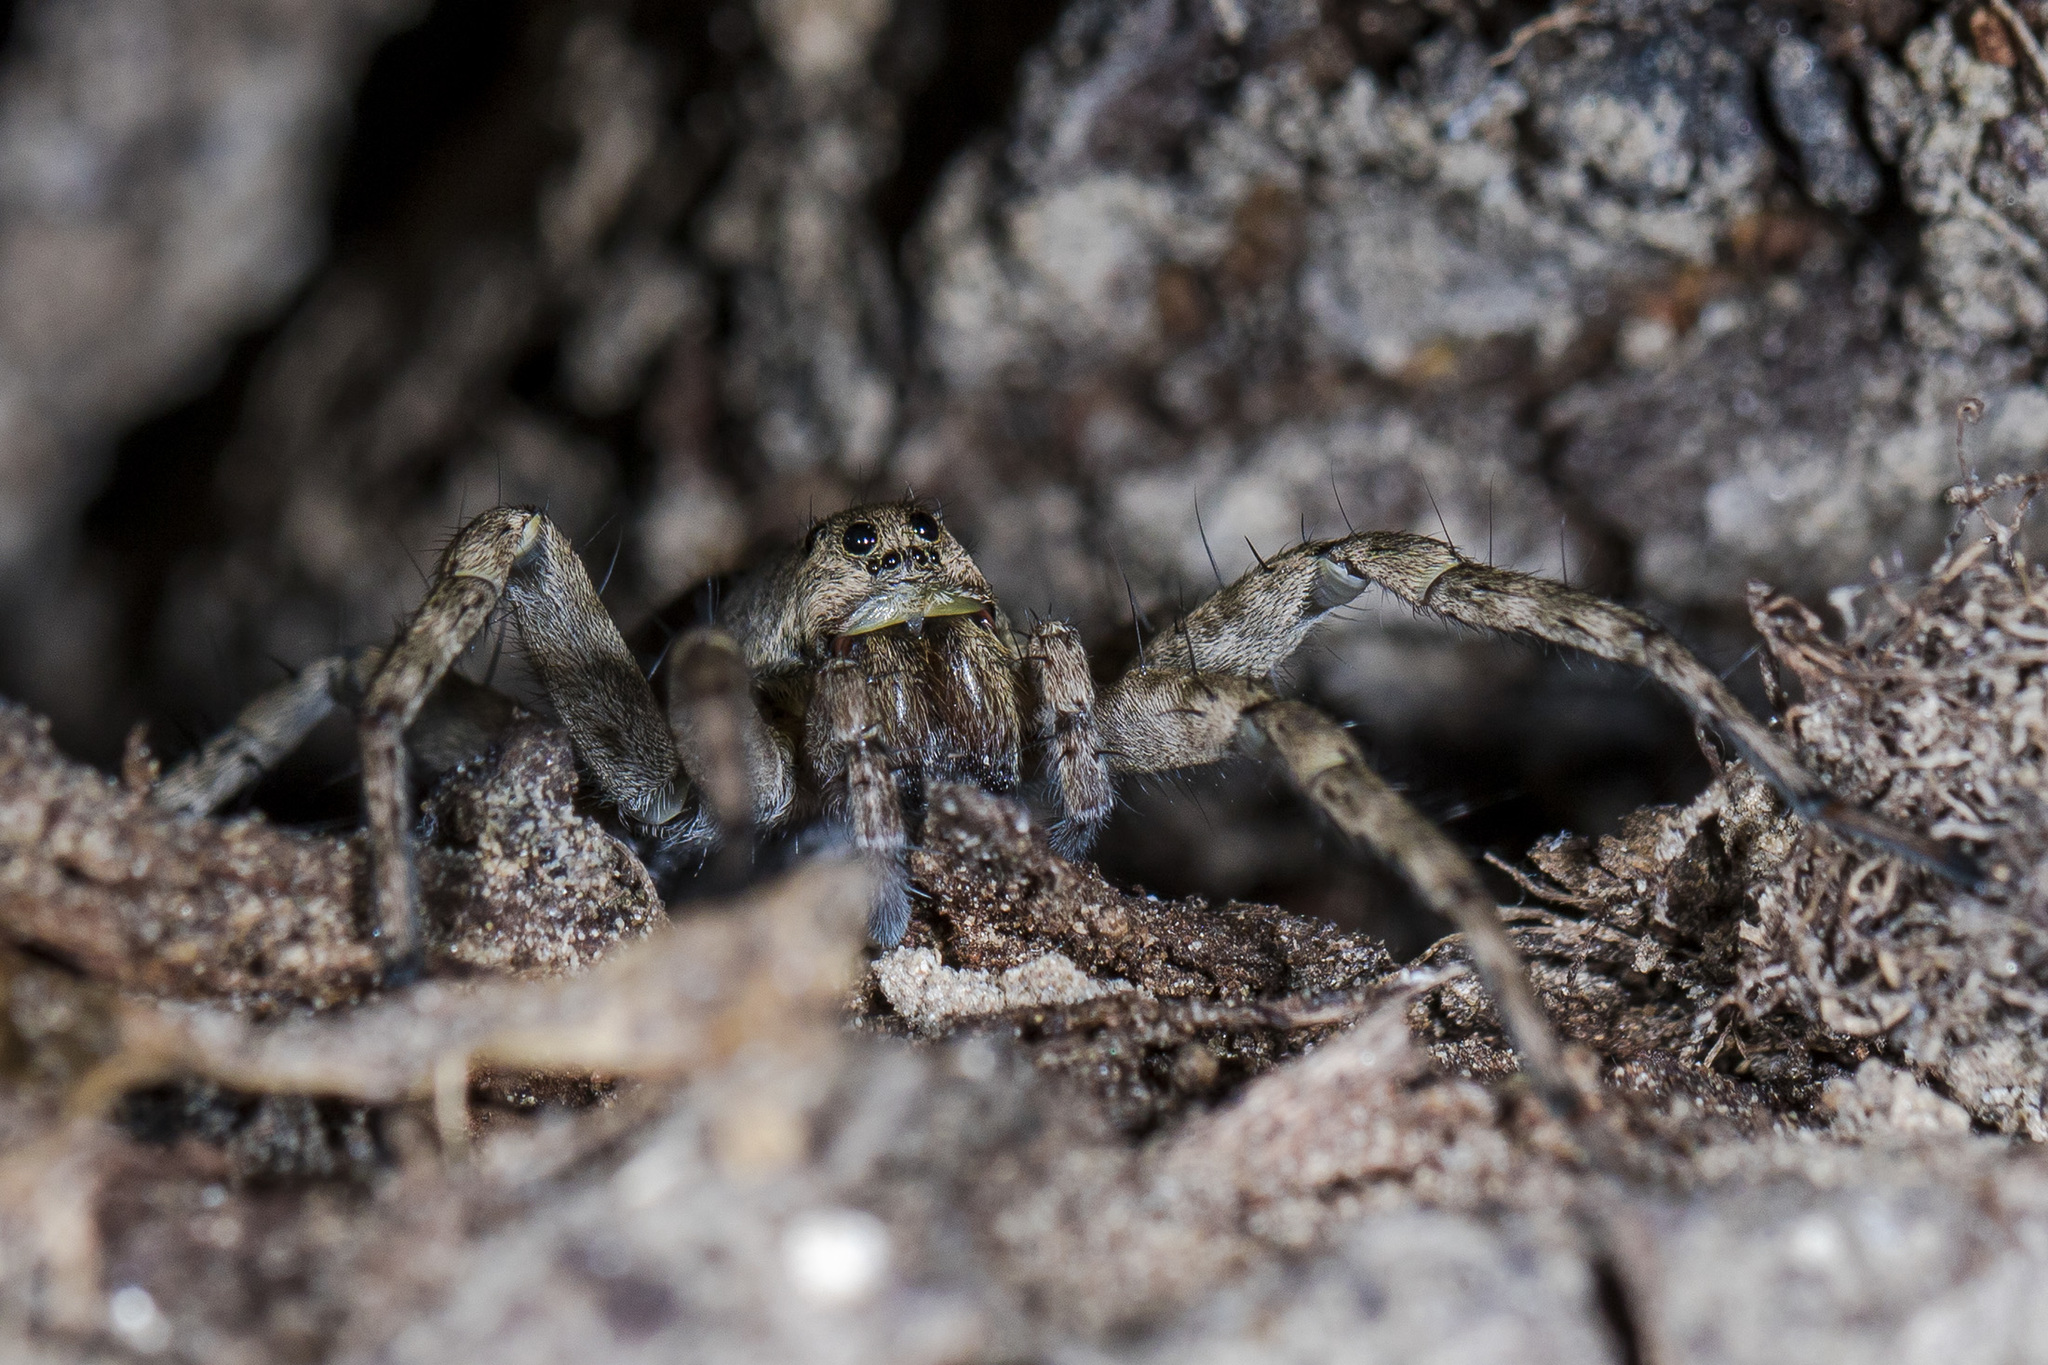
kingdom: Animalia
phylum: Arthropoda
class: Arachnida
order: Araneae
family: Lycosidae
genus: Pardosa
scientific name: Pardosa nebulosa
